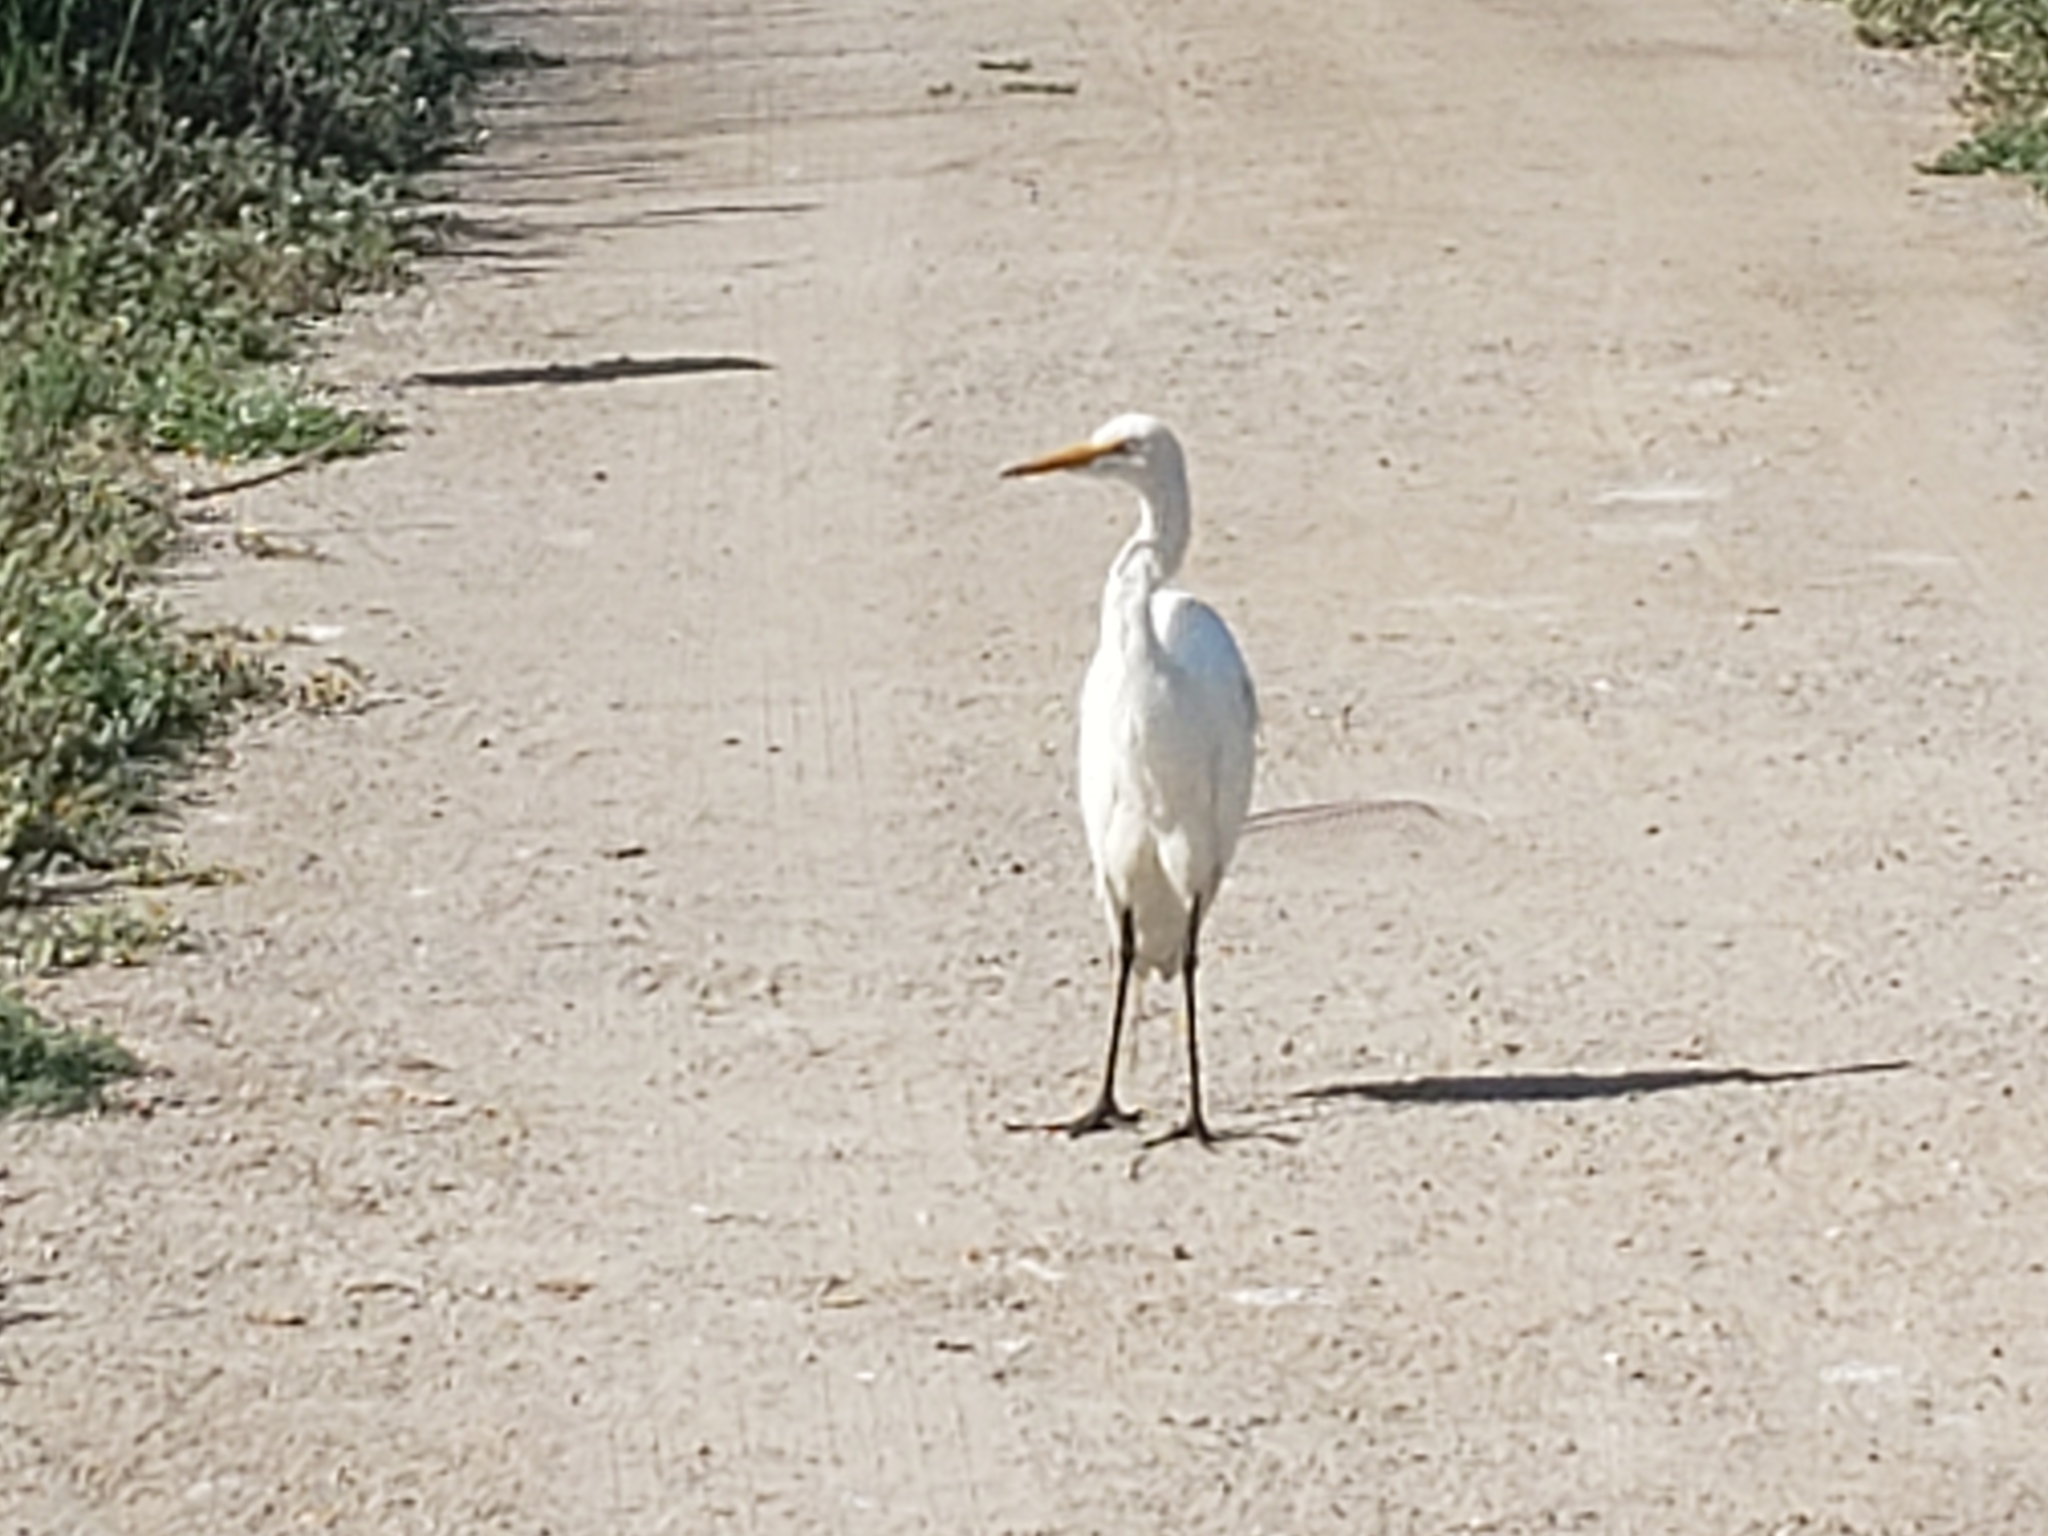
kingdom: Animalia
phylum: Chordata
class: Aves
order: Pelecaniformes
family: Ardeidae
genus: Ardea
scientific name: Ardea alba
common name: Great egret
